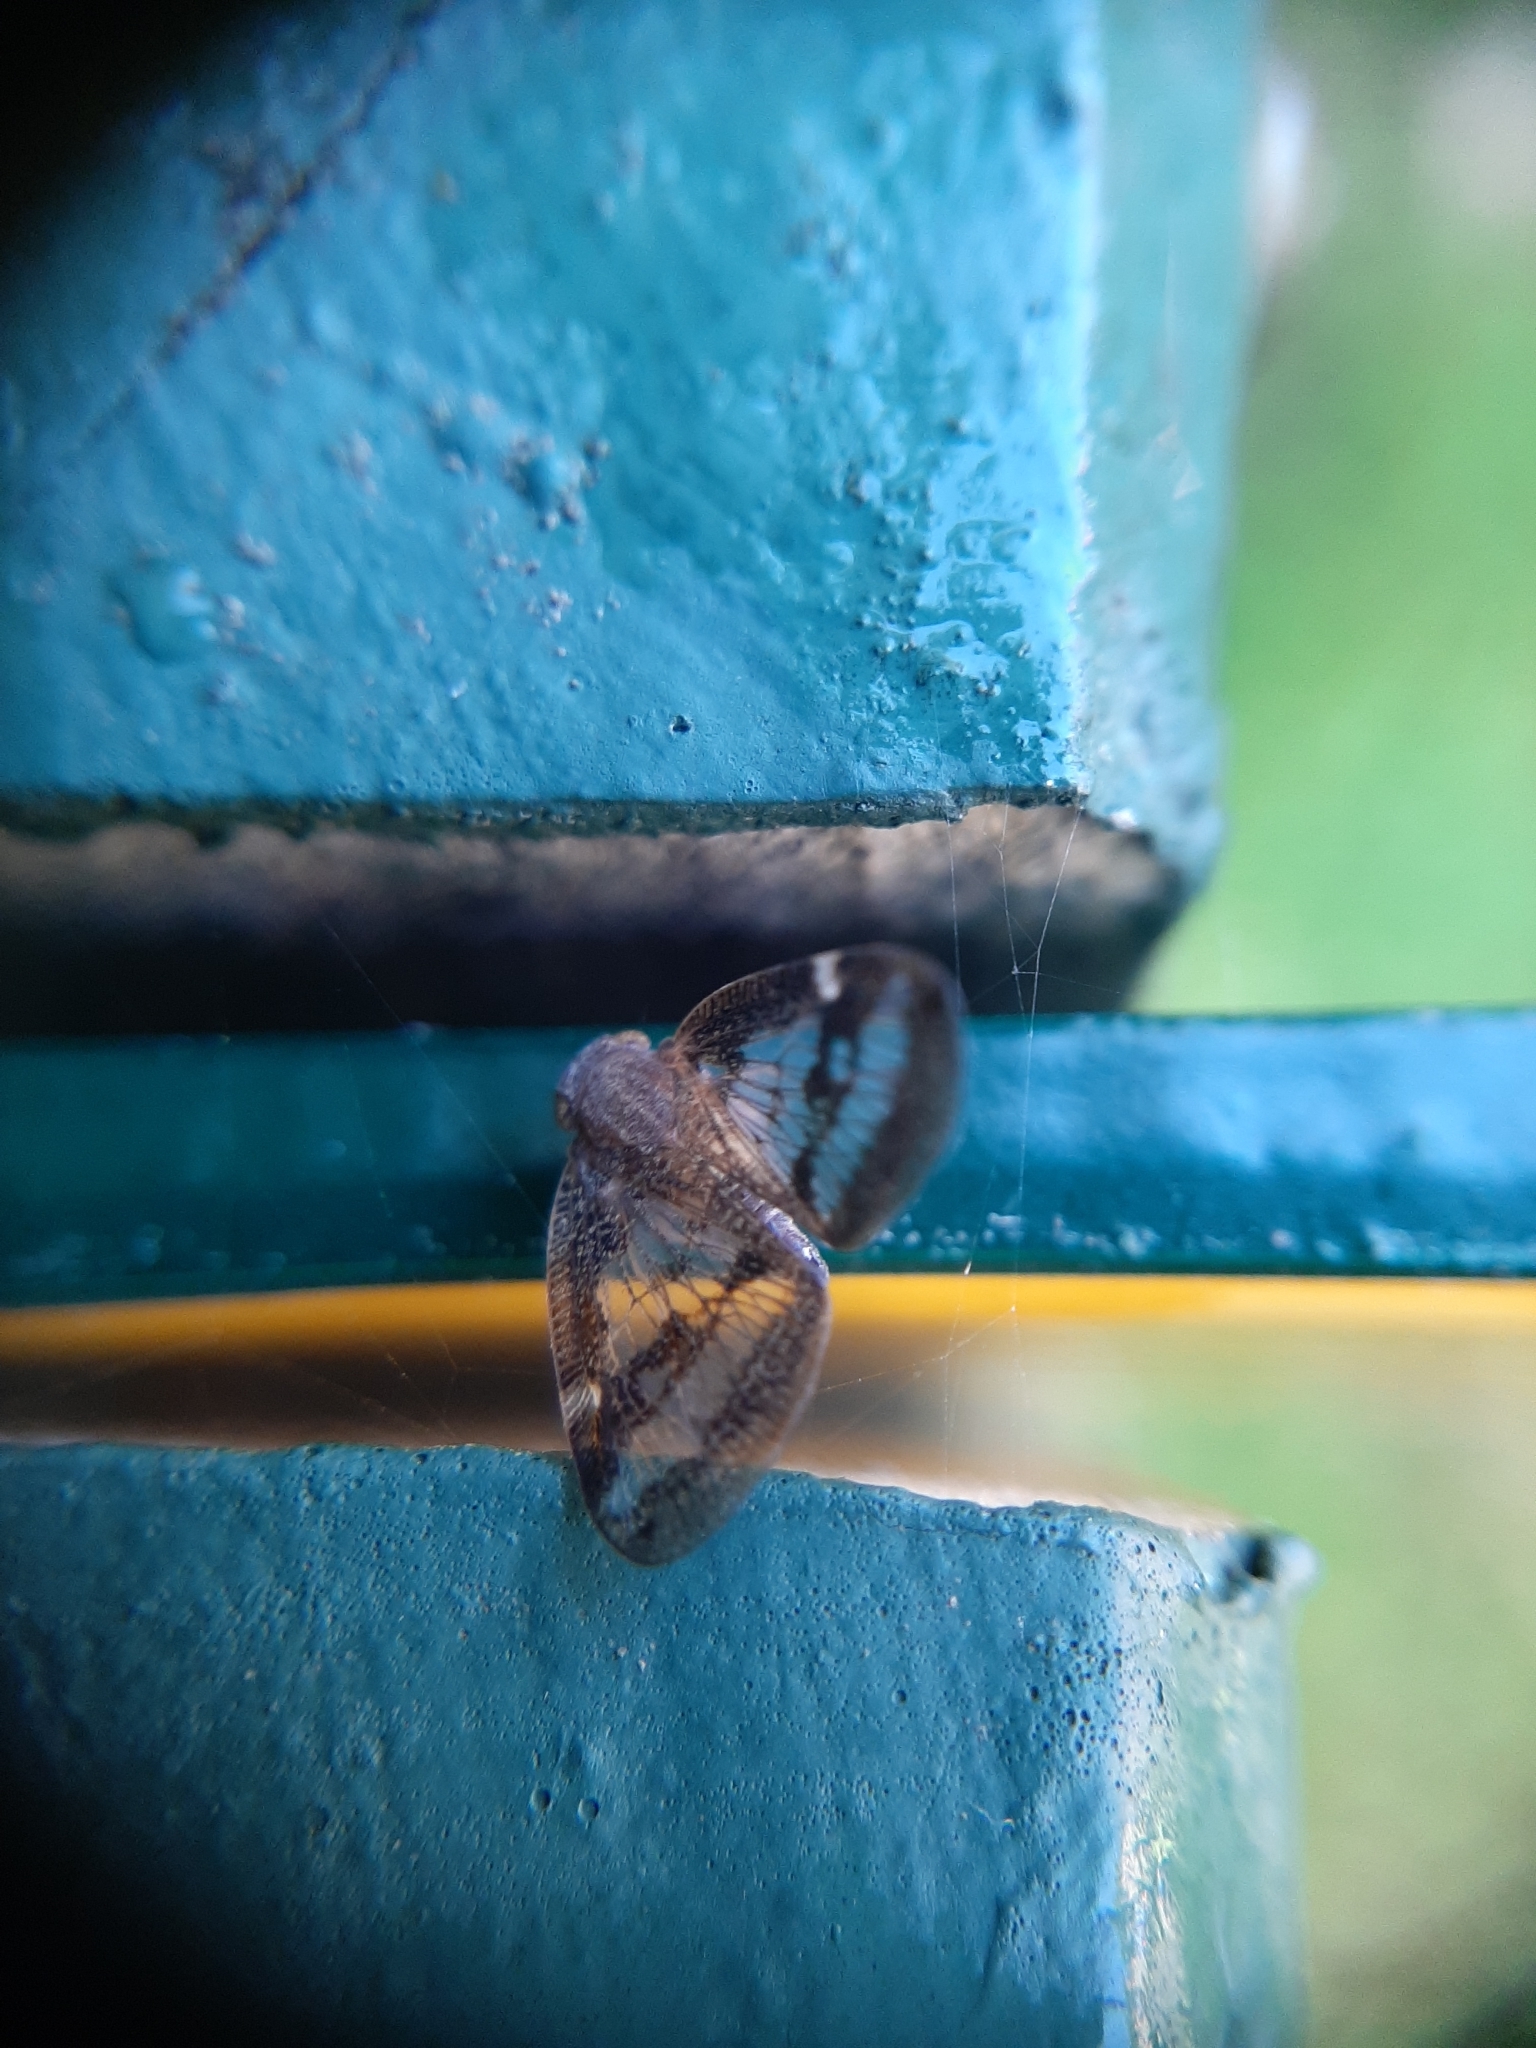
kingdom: Animalia
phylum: Arthropoda
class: Insecta
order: Hemiptera
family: Ricaniidae
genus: Scolypopa
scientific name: Scolypopa australis
